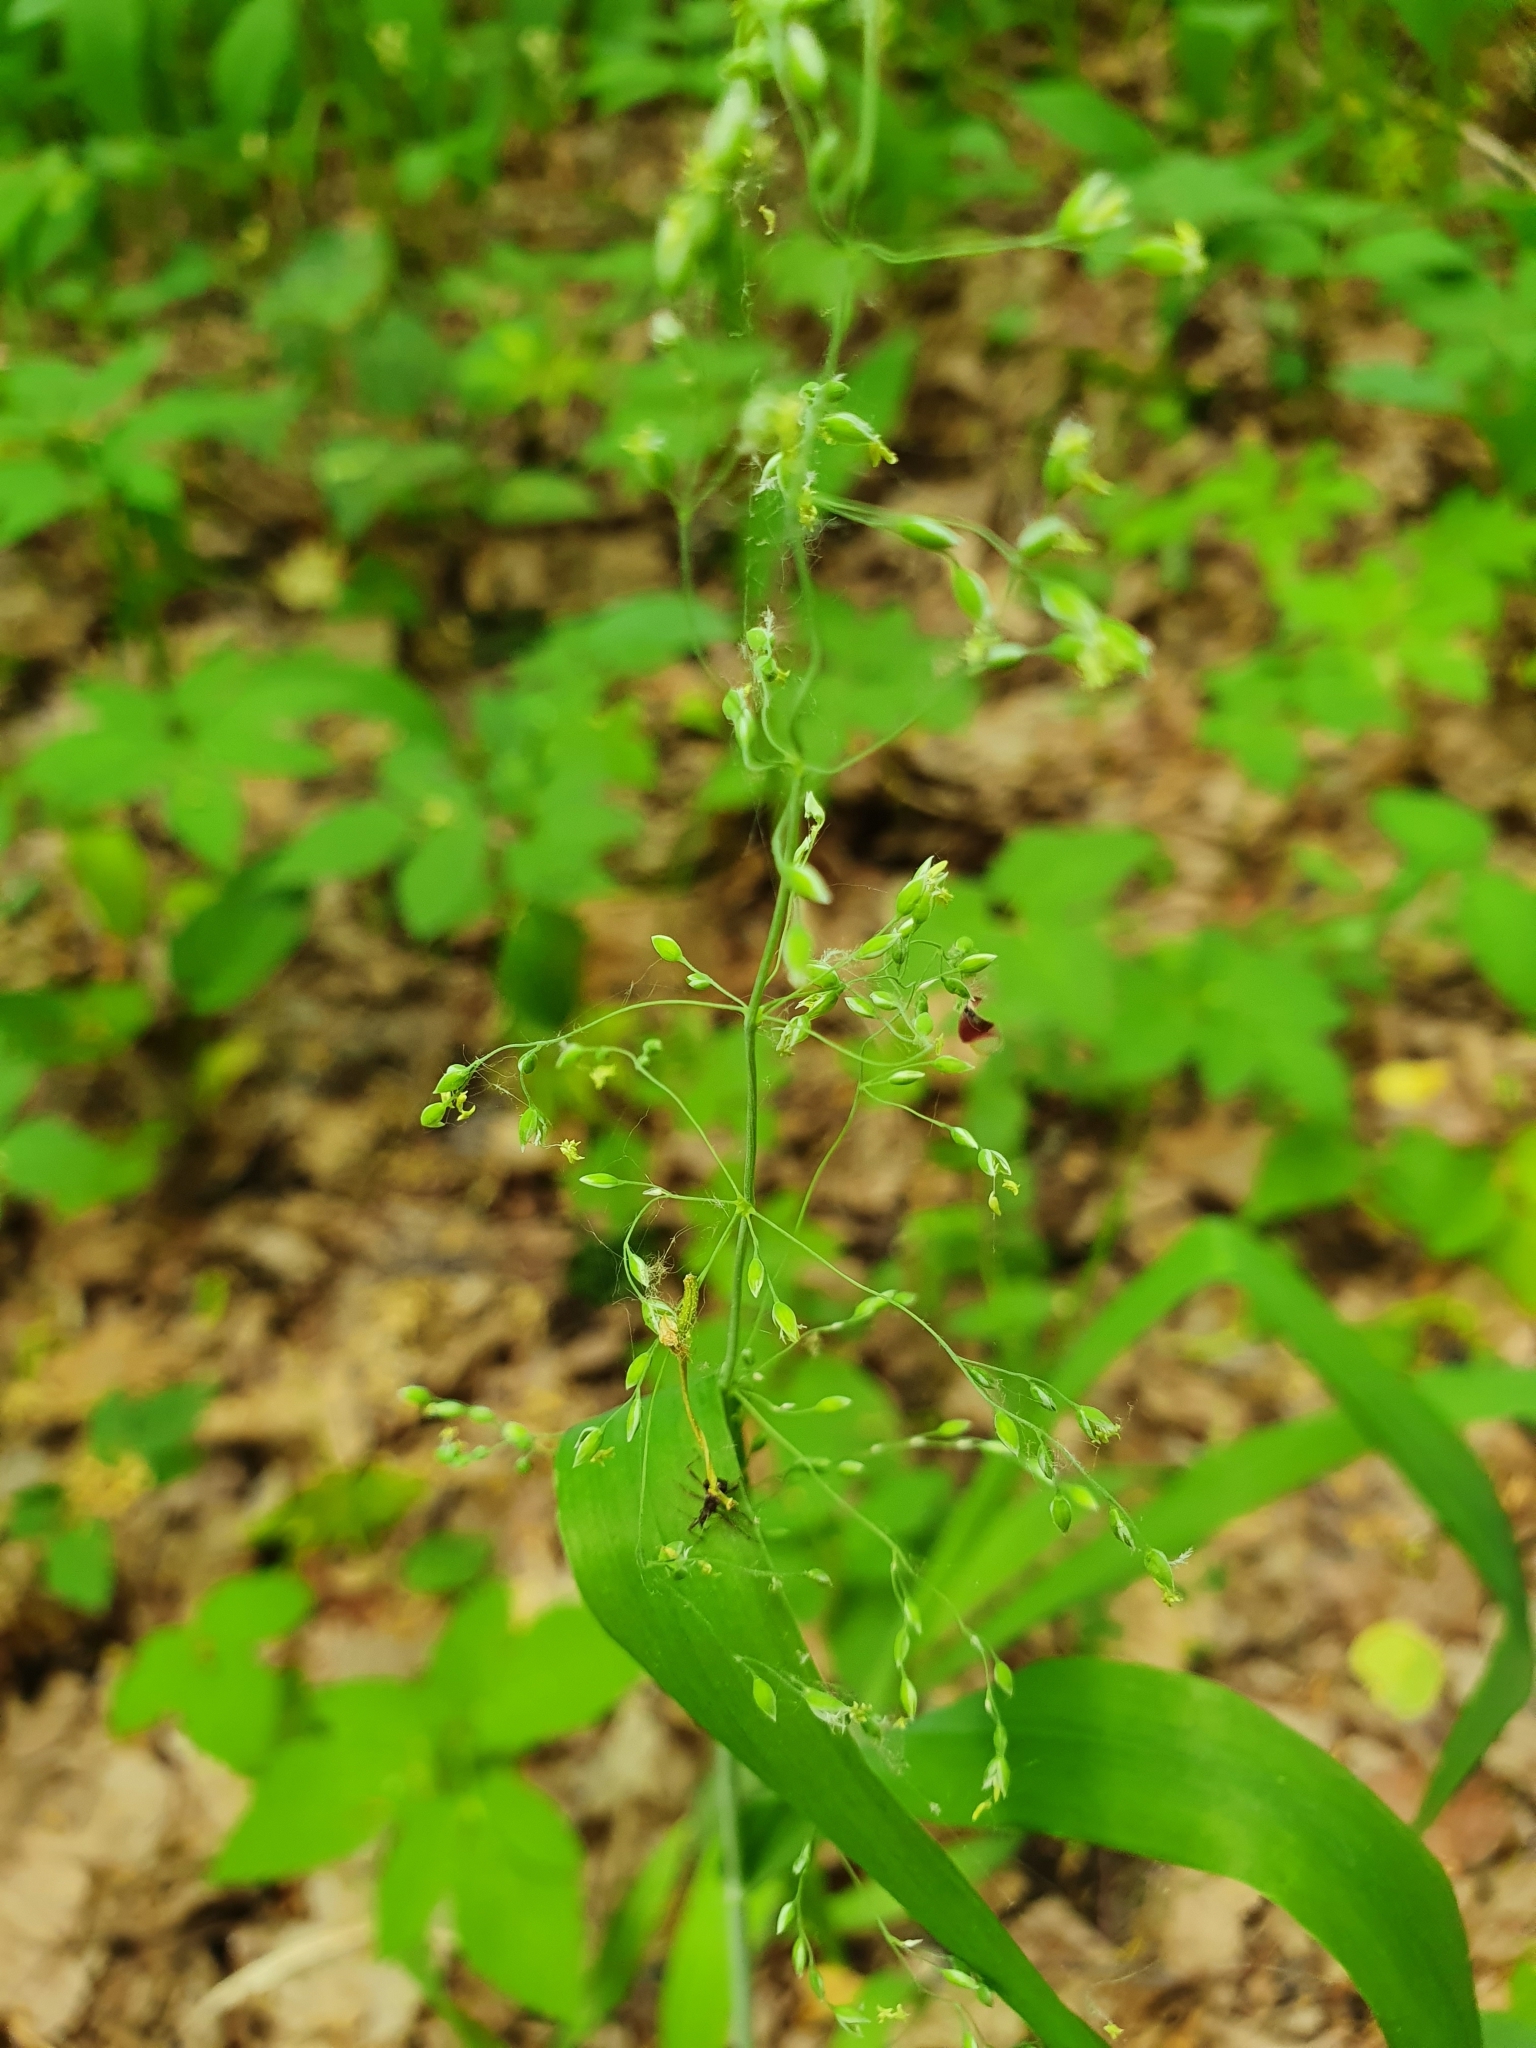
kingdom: Plantae
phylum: Tracheophyta
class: Liliopsida
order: Poales
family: Poaceae
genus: Milium
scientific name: Milium effusum
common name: Wood millet
